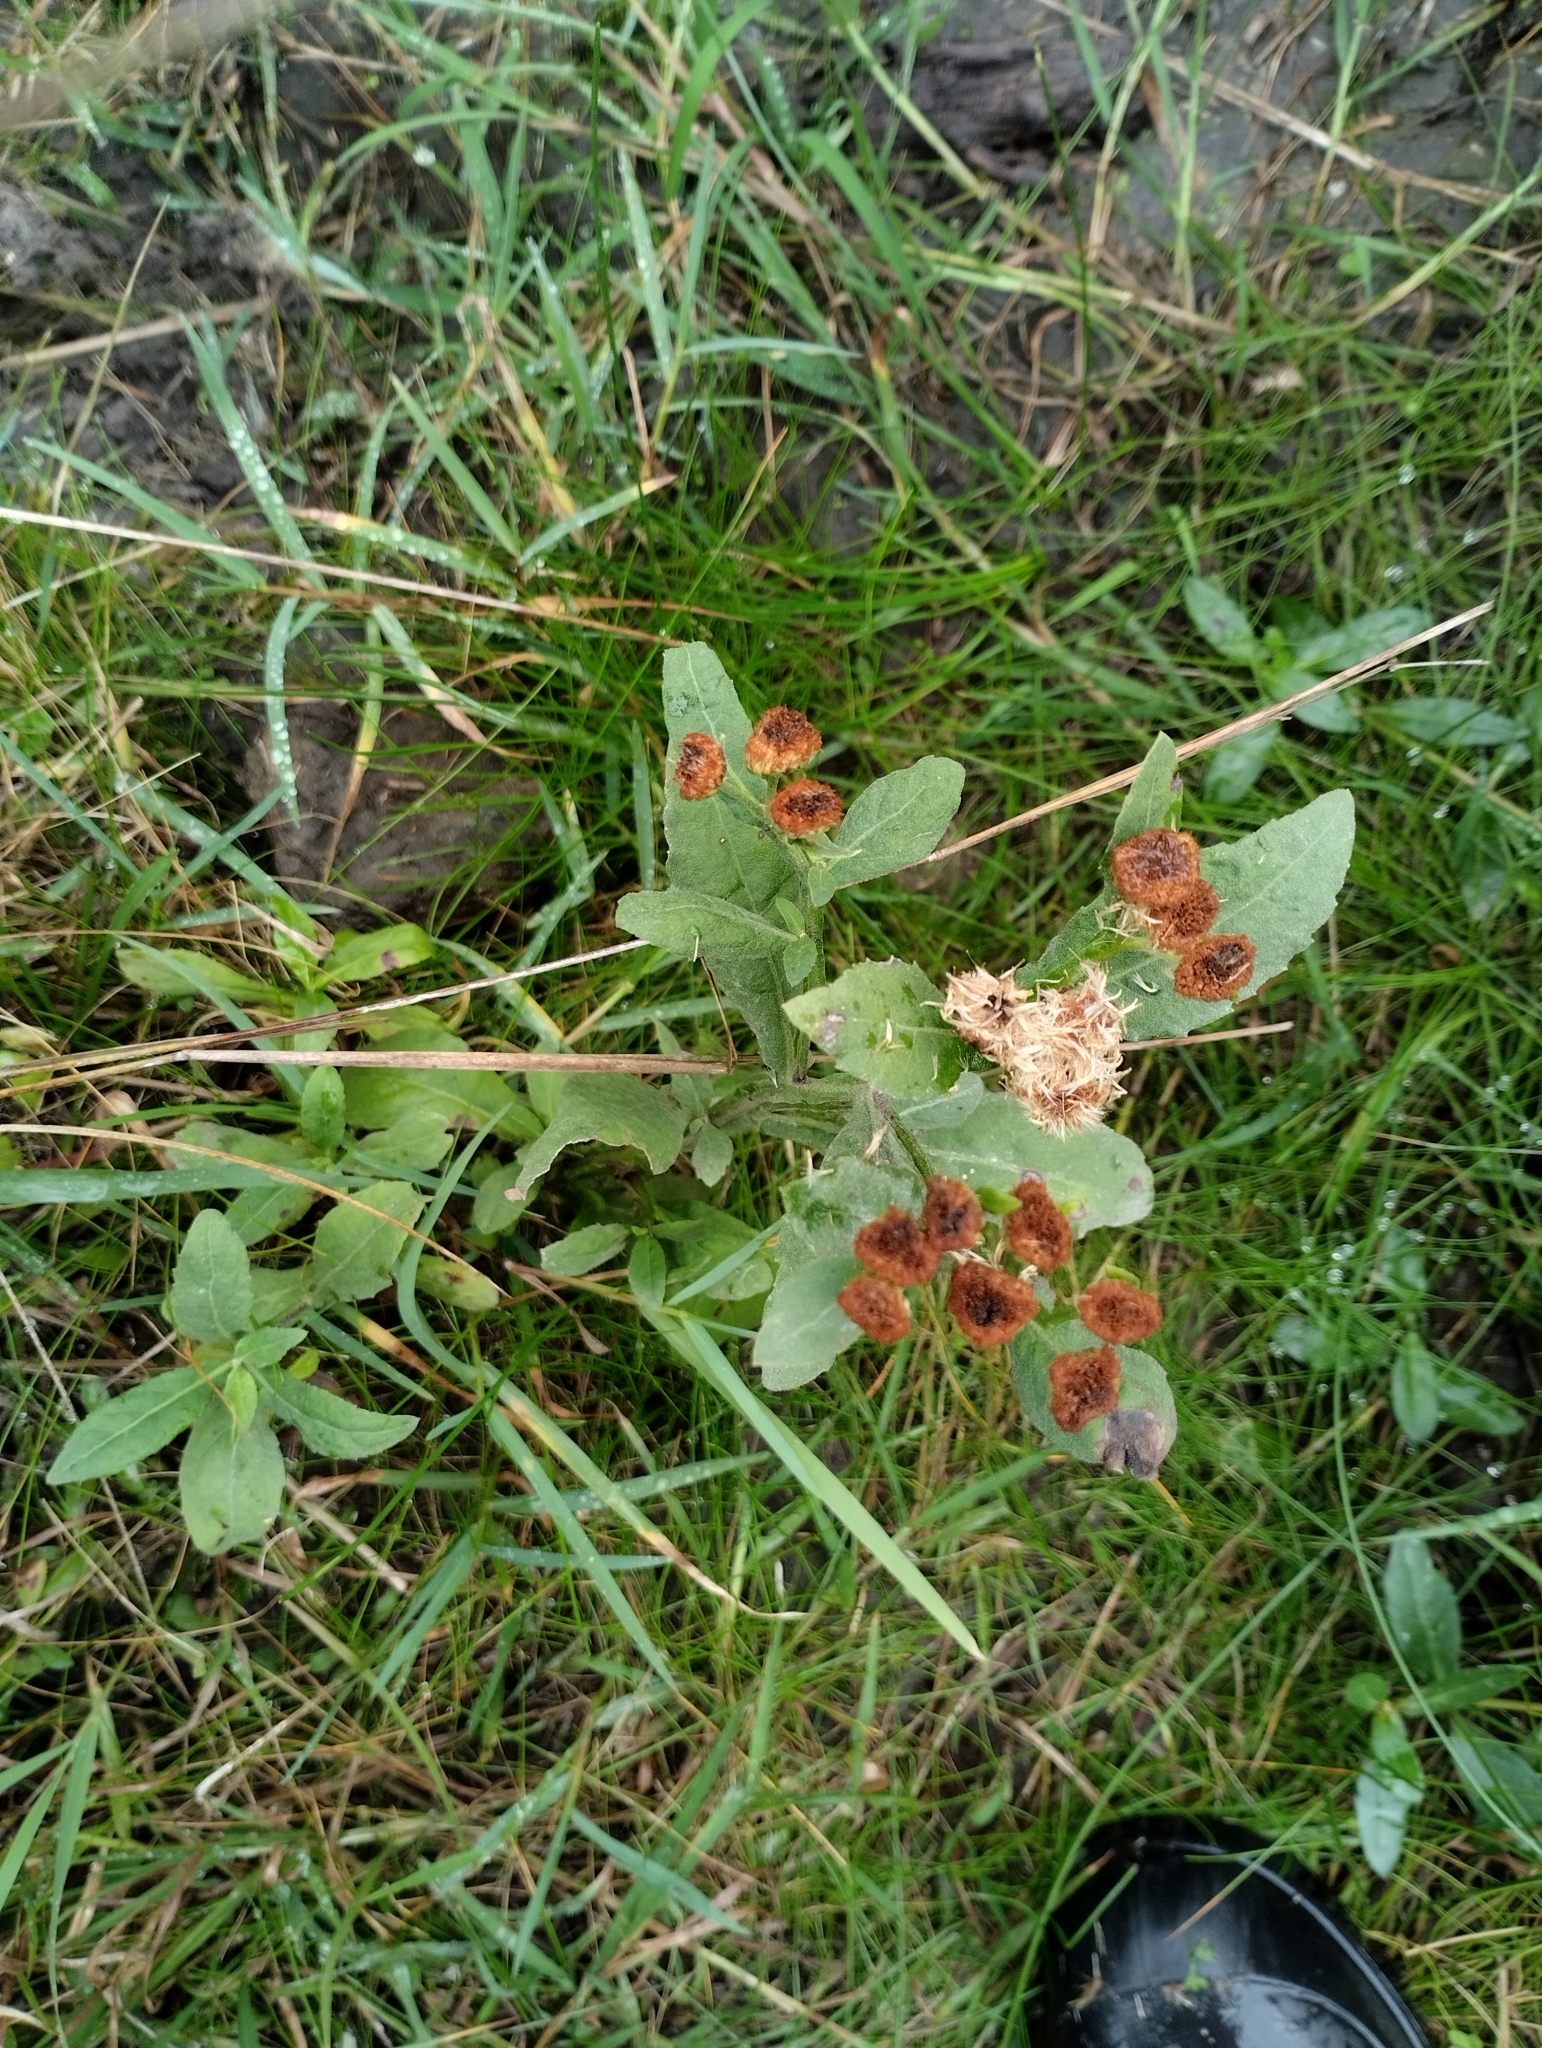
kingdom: Plantae
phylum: Tracheophyta
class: Magnoliopsida
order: Asterales
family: Asteraceae
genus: Pluchea
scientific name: Pluchea sagittalis
